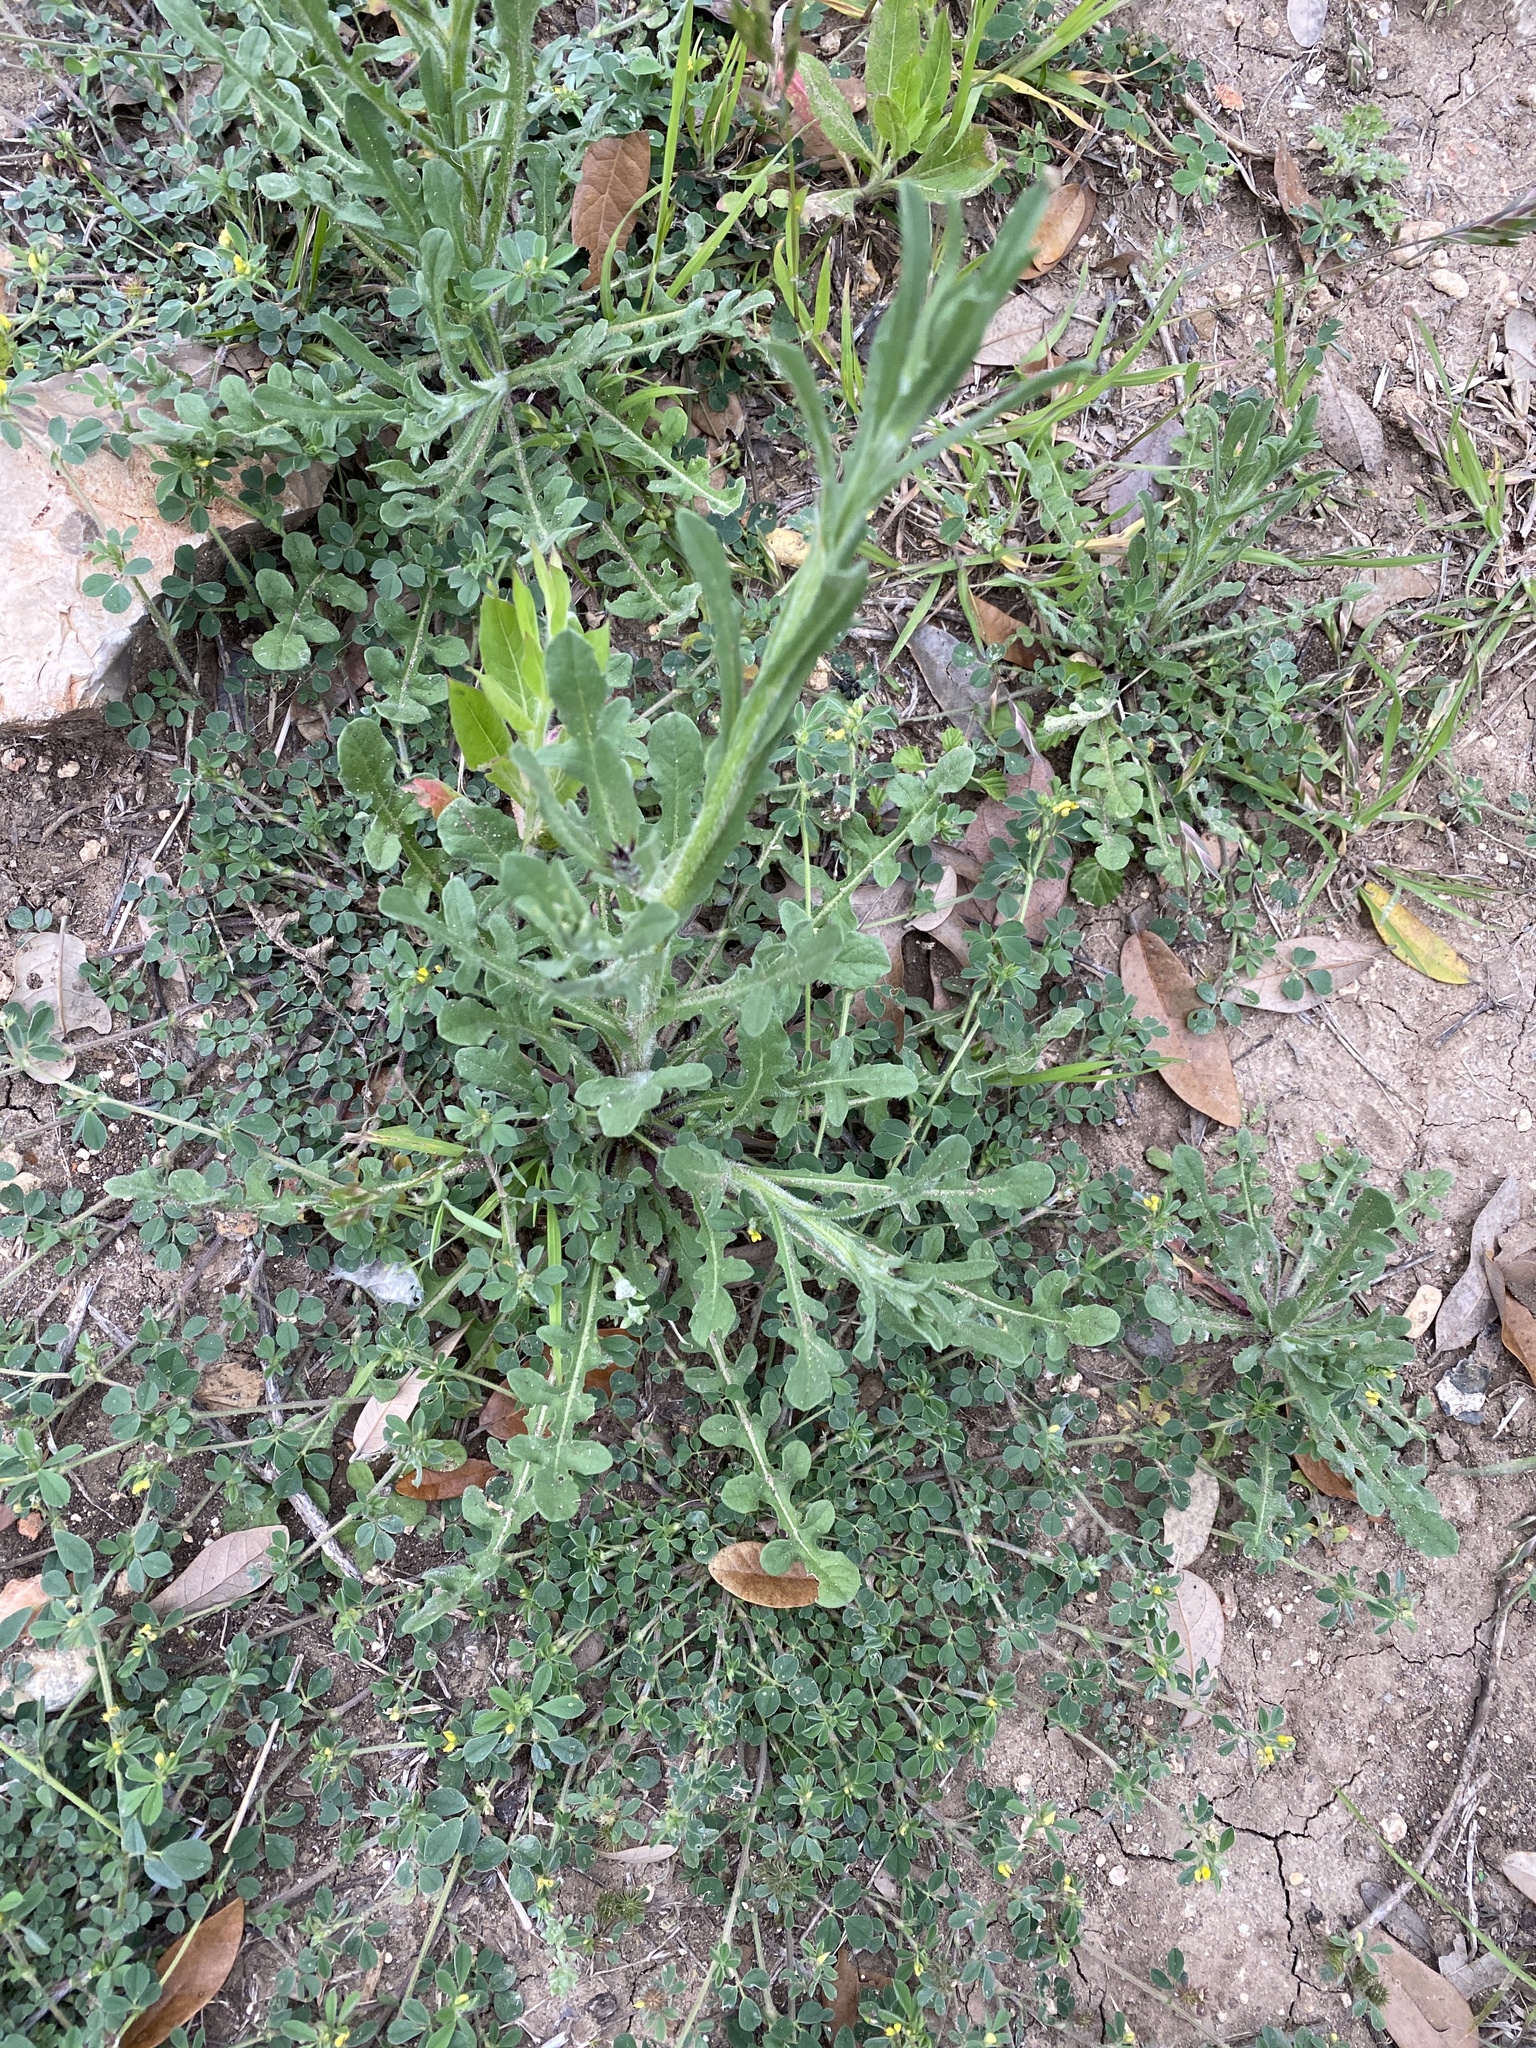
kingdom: Plantae
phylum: Tracheophyta
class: Magnoliopsida
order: Asterales
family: Asteraceae
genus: Centaurea
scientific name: Centaurea melitensis
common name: Maltese star-thistle
